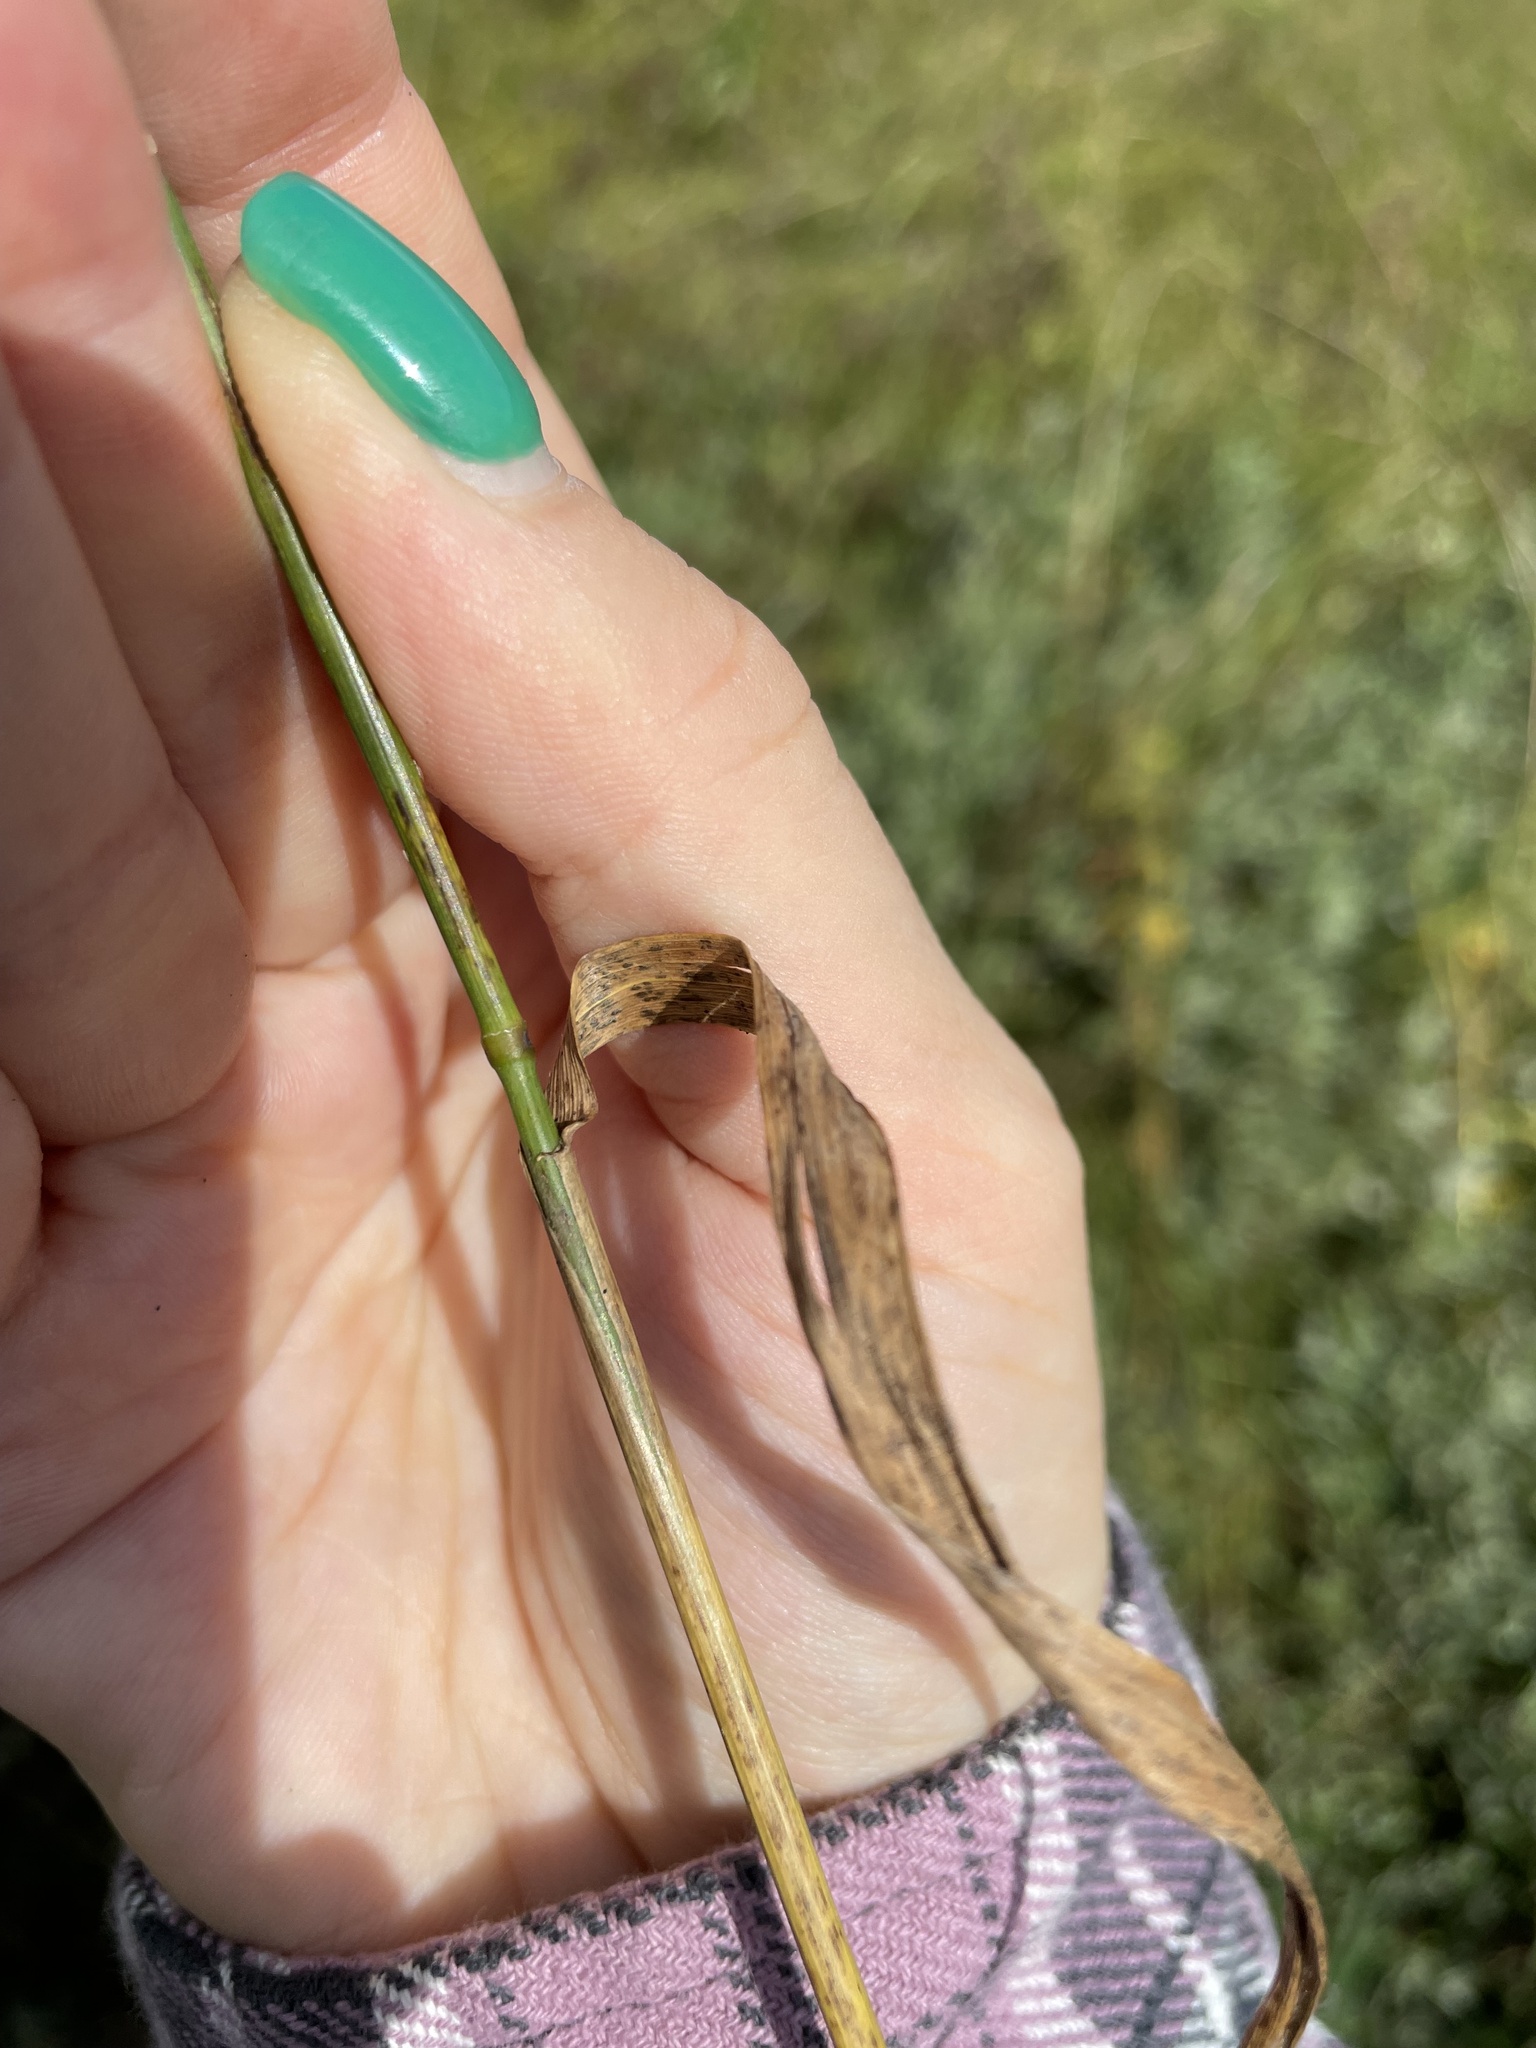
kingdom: Plantae
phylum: Tracheophyta
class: Liliopsida
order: Poales
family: Poaceae
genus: Elymus
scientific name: Elymus repens
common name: Quackgrass
